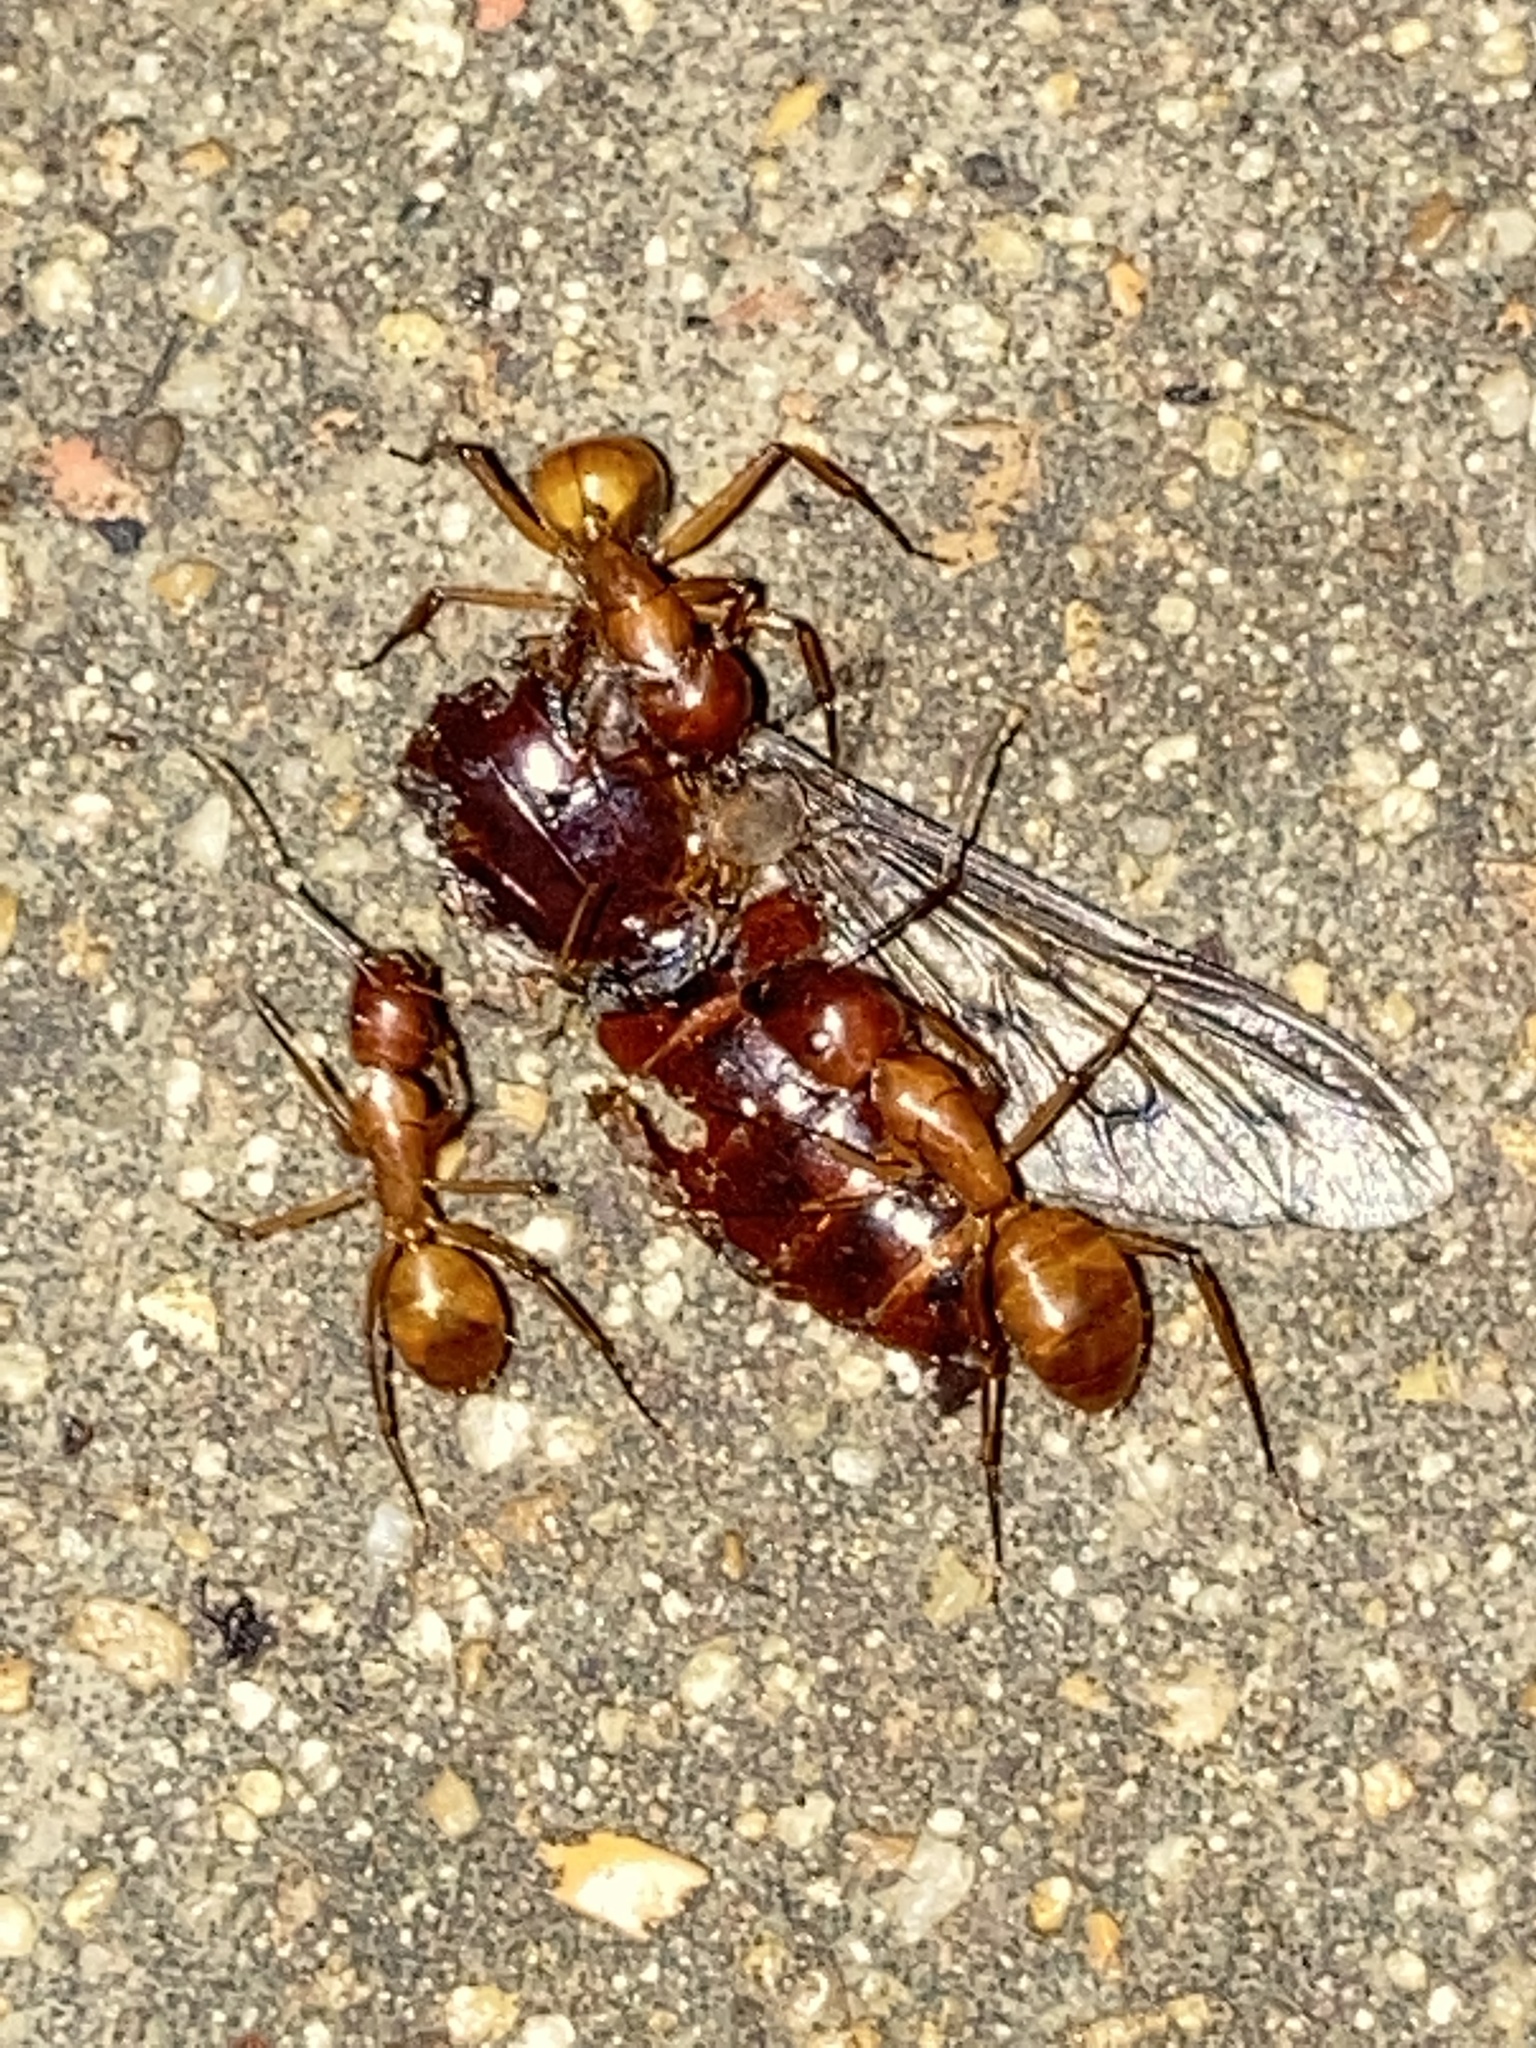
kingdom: Animalia
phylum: Arthropoda
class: Insecta
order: Hymenoptera
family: Formicidae
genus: Camponotus
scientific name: Camponotus castaneus
